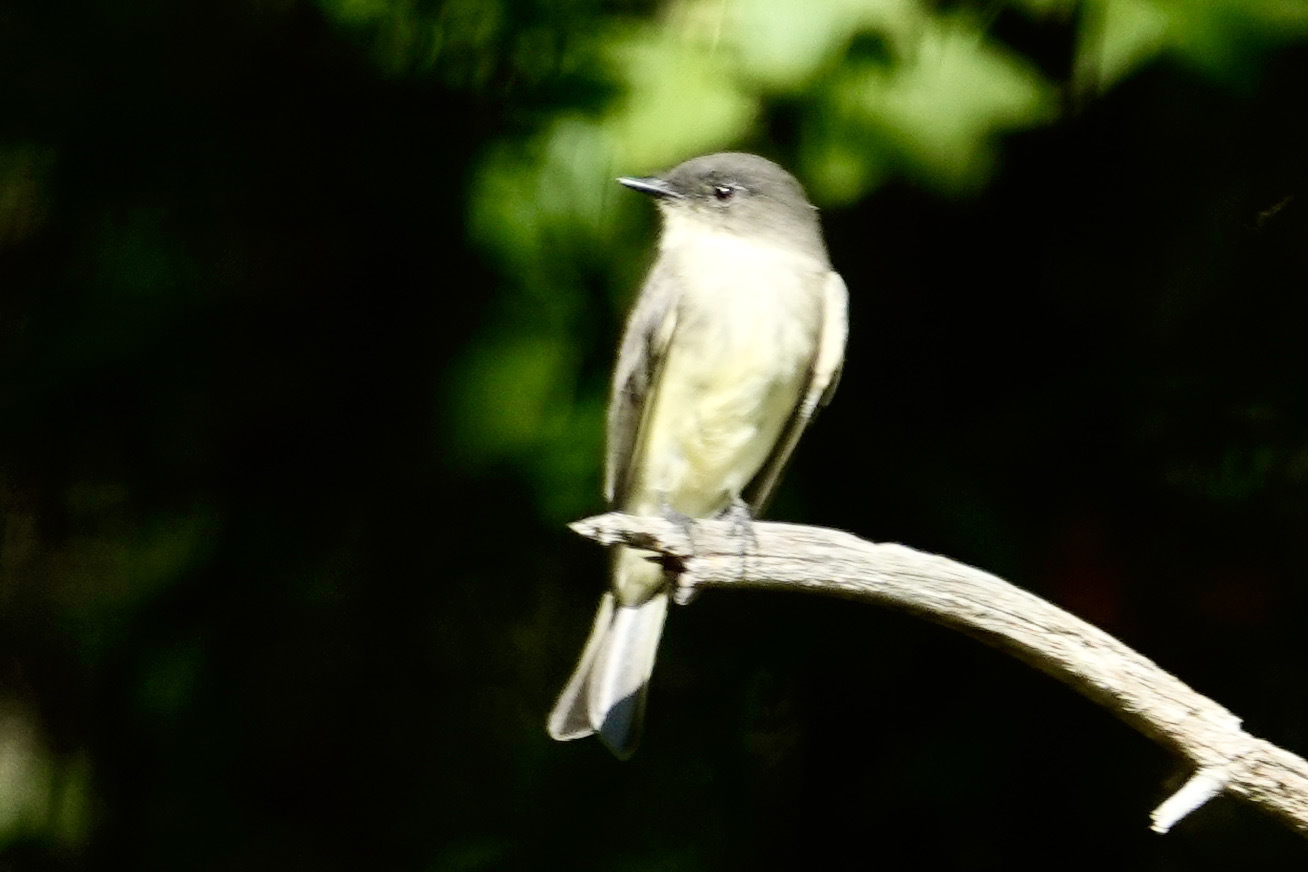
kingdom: Animalia
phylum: Chordata
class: Aves
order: Passeriformes
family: Tyrannidae
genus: Sayornis
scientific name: Sayornis phoebe
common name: Eastern phoebe
